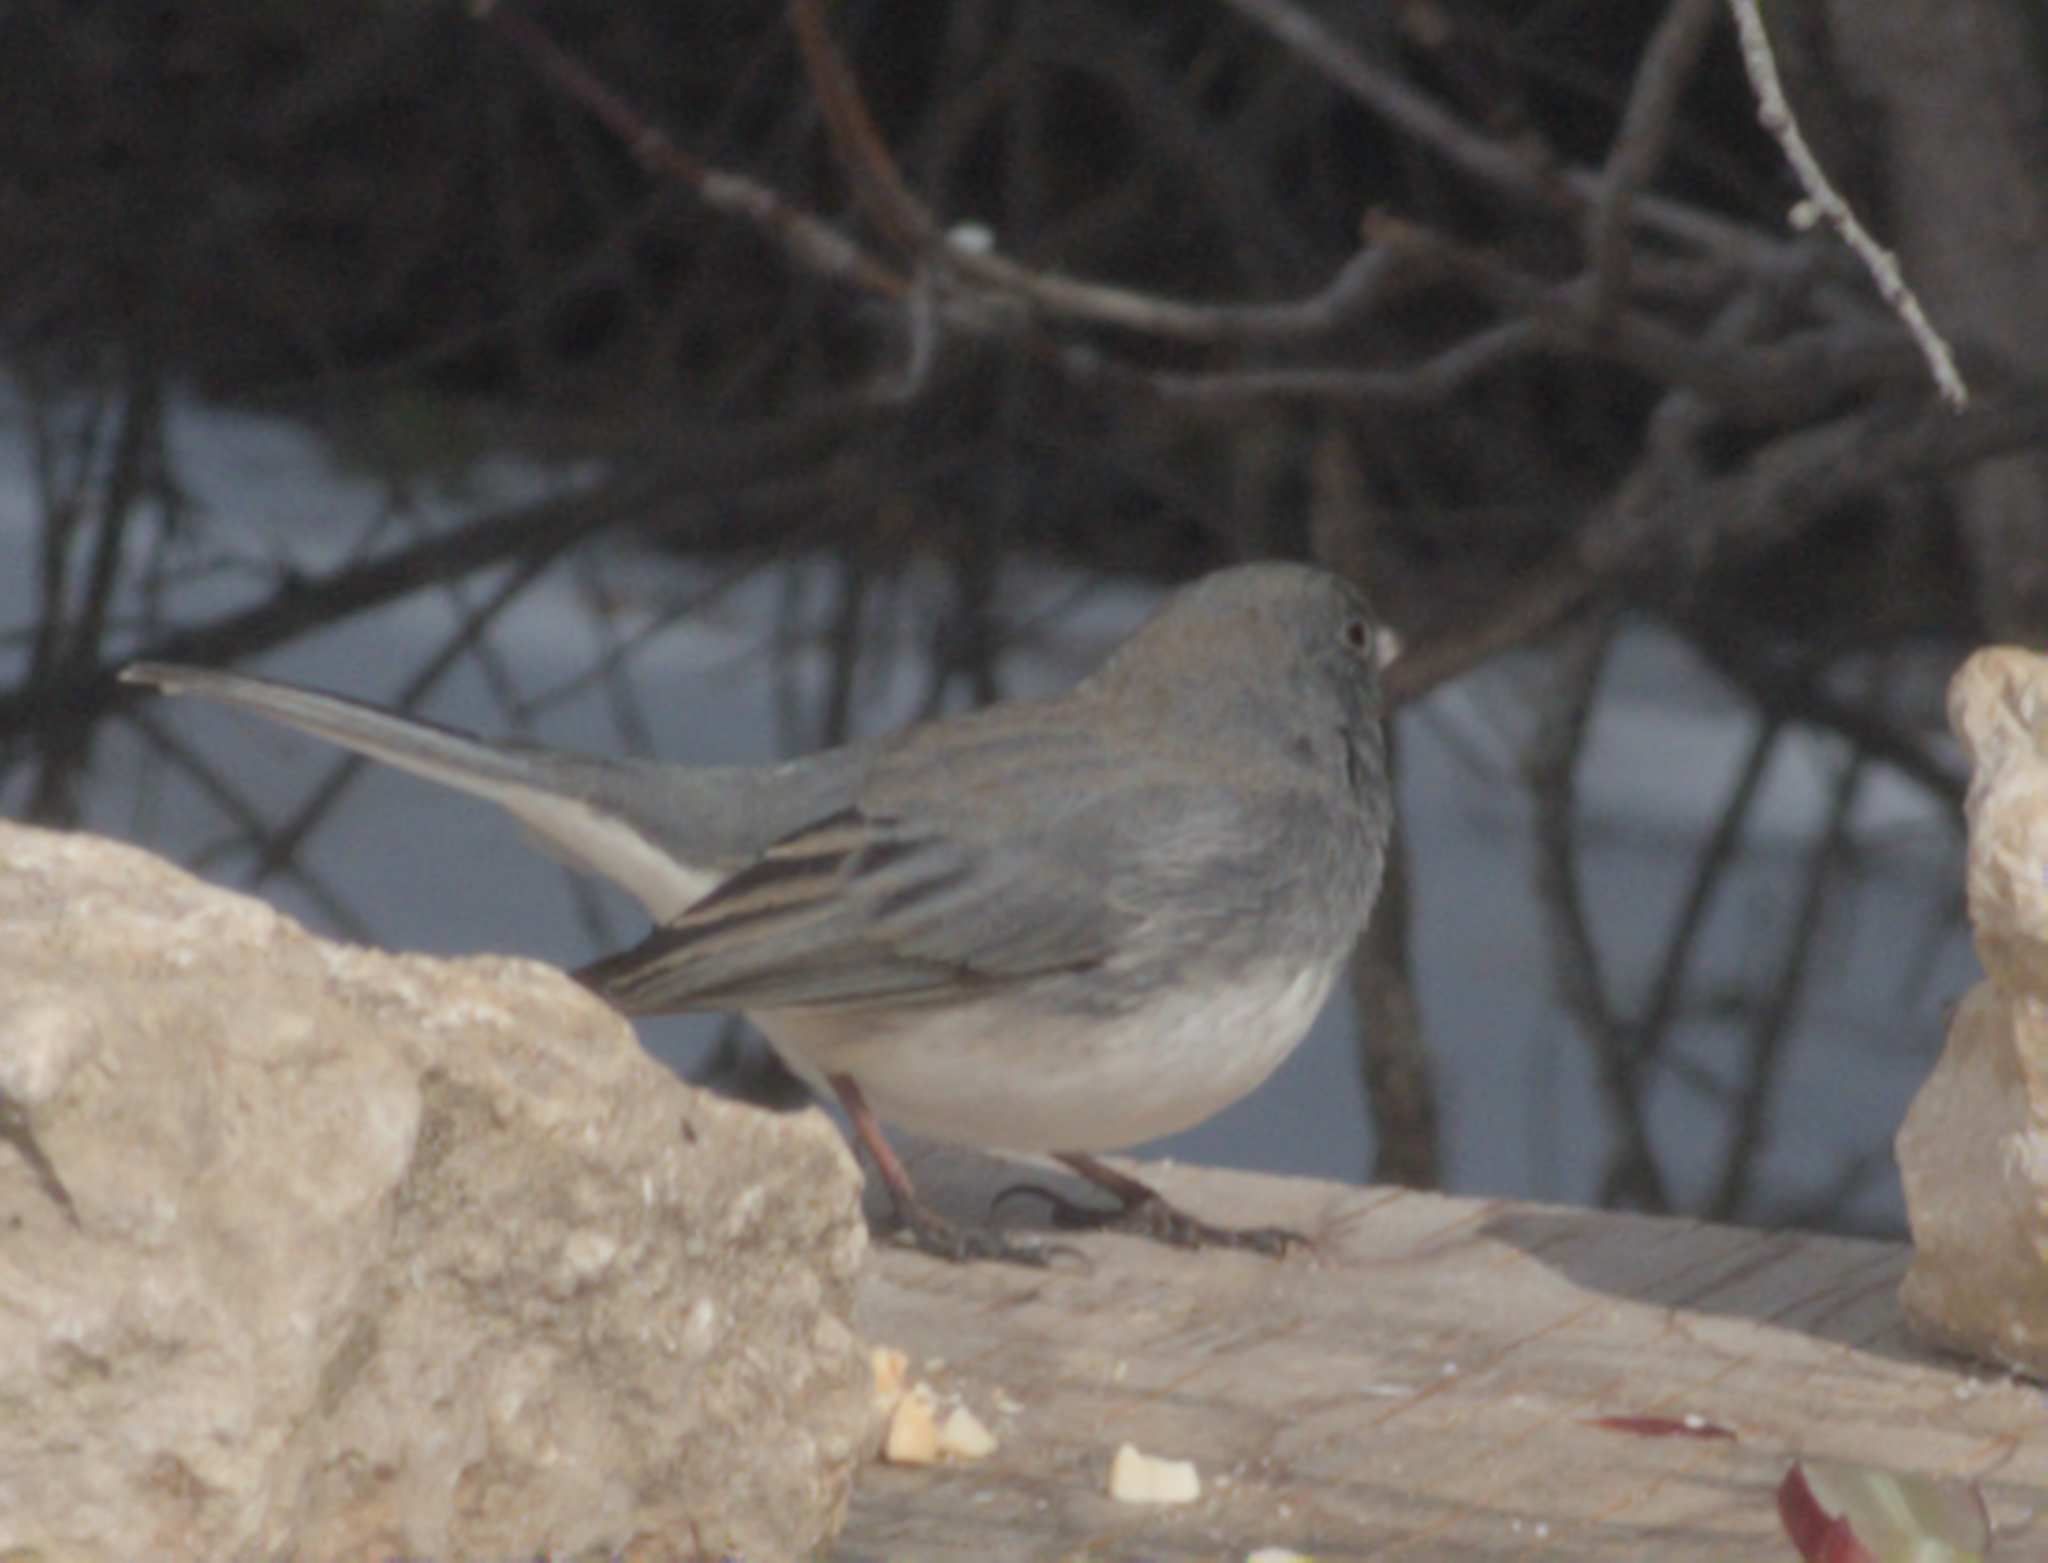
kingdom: Animalia
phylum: Chordata
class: Aves
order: Passeriformes
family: Passerellidae
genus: Junco
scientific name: Junco hyemalis
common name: Dark-eyed junco
